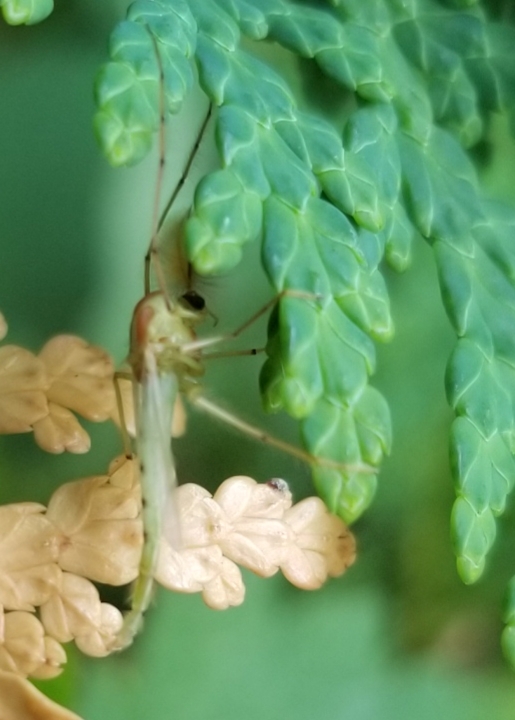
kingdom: Animalia
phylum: Arthropoda
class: Insecta
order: Diptera
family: Chironomidae
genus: Axarus
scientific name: Axarus
